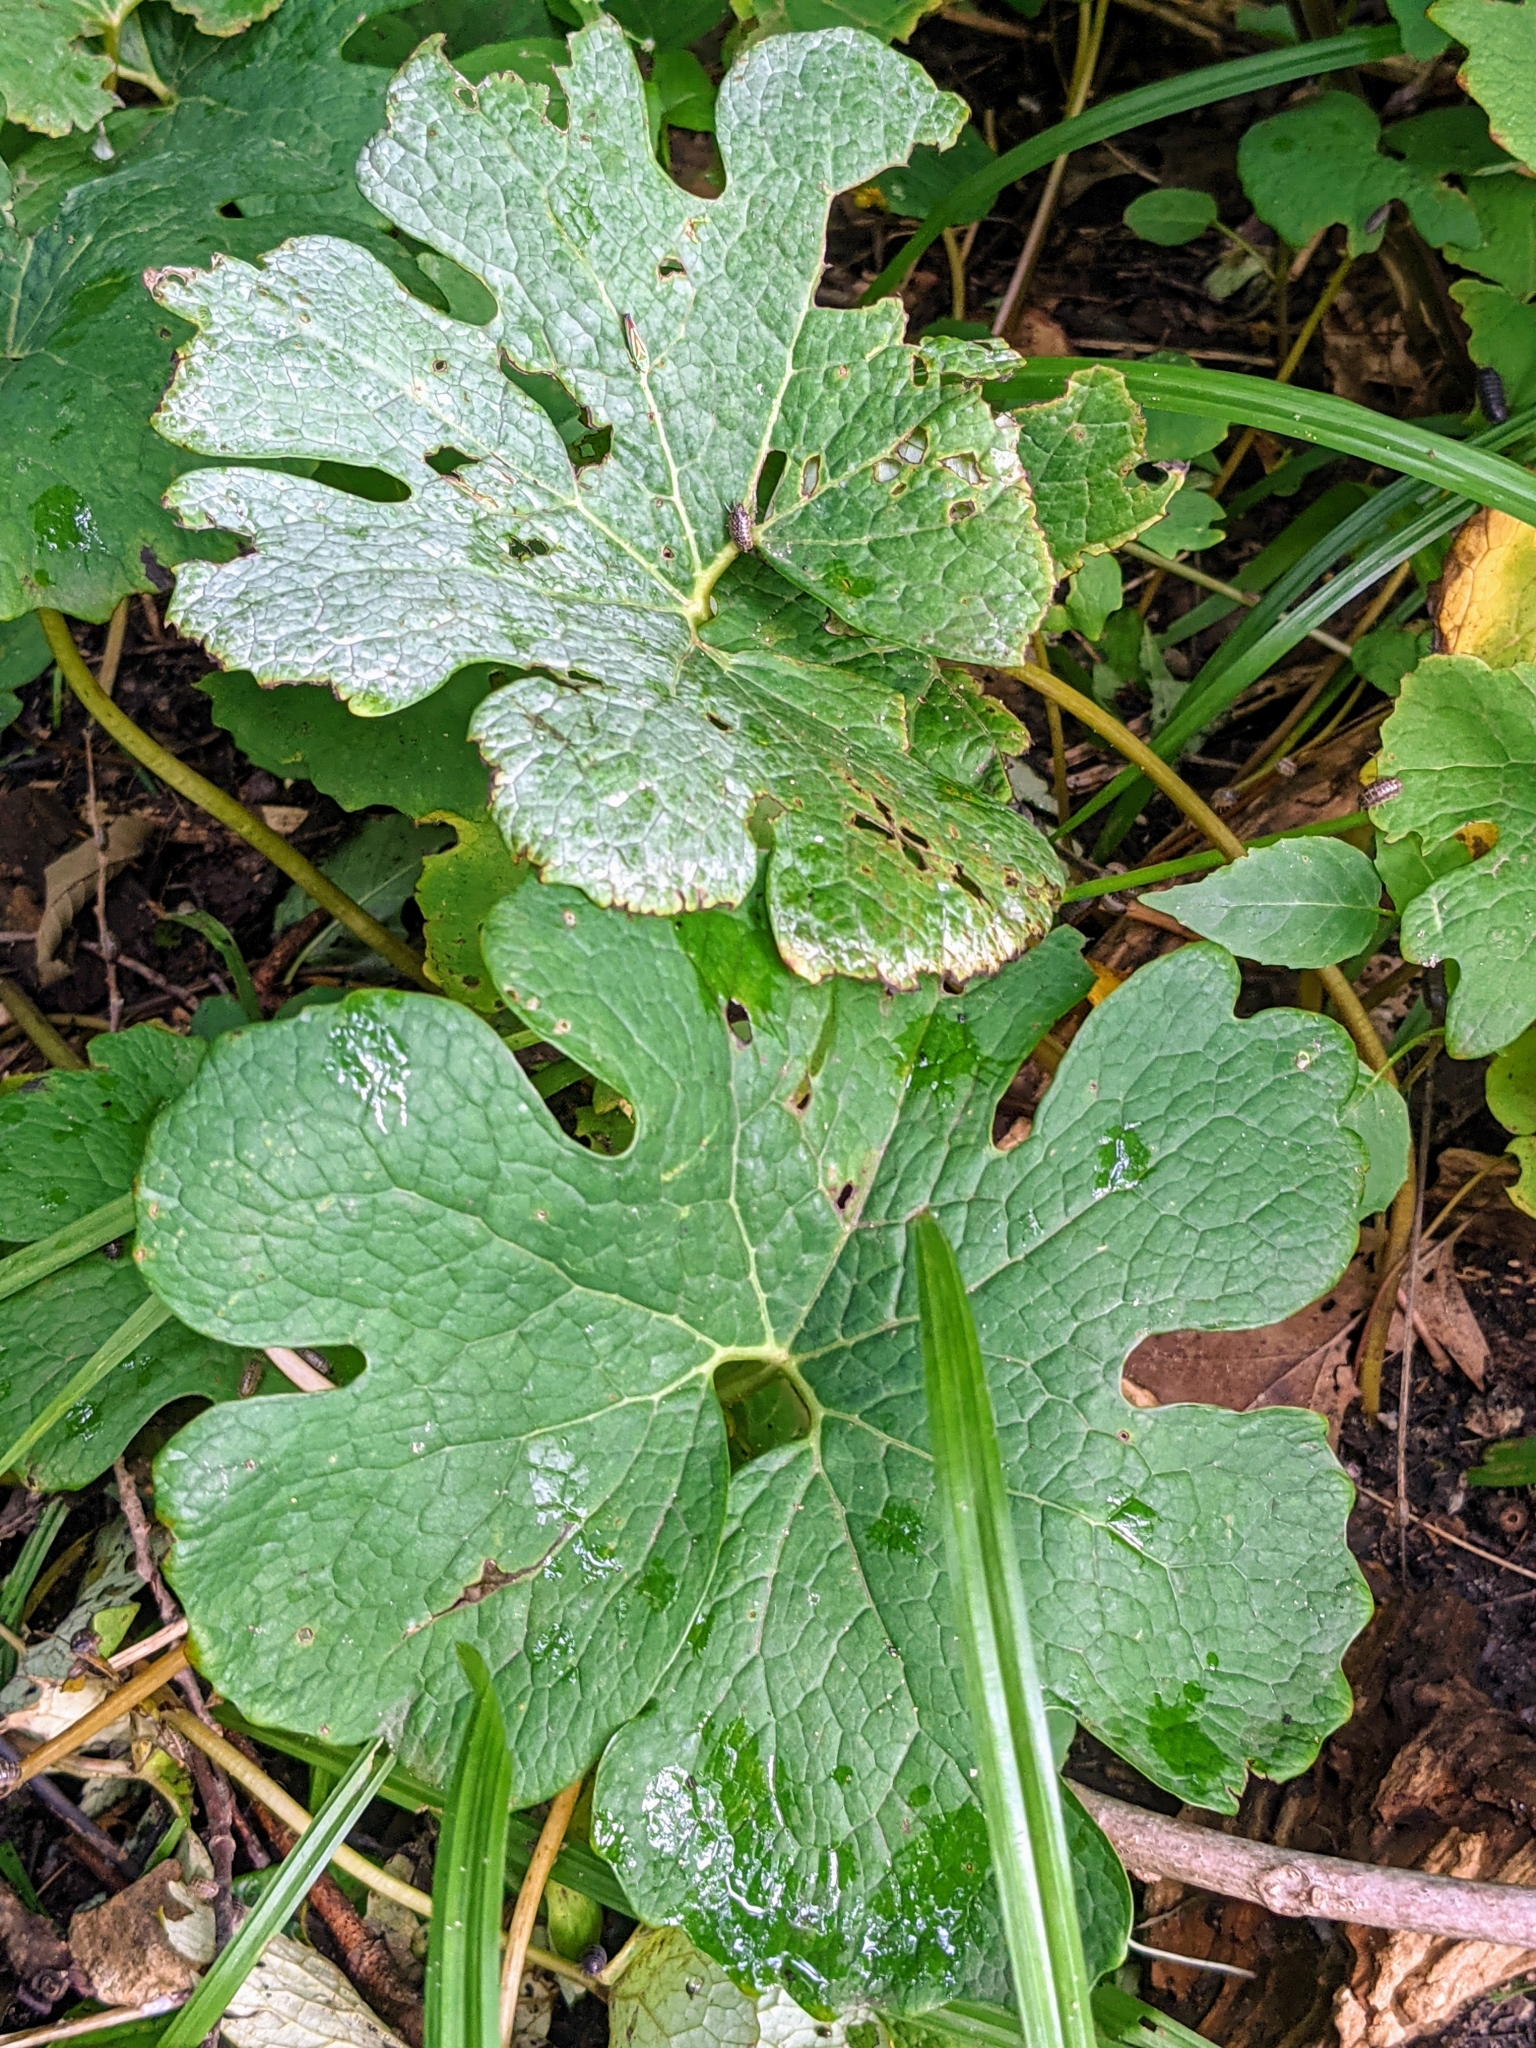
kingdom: Plantae
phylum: Tracheophyta
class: Magnoliopsida
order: Ranunculales
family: Papaveraceae
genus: Sanguinaria
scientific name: Sanguinaria canadensis
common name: Bloodroot
